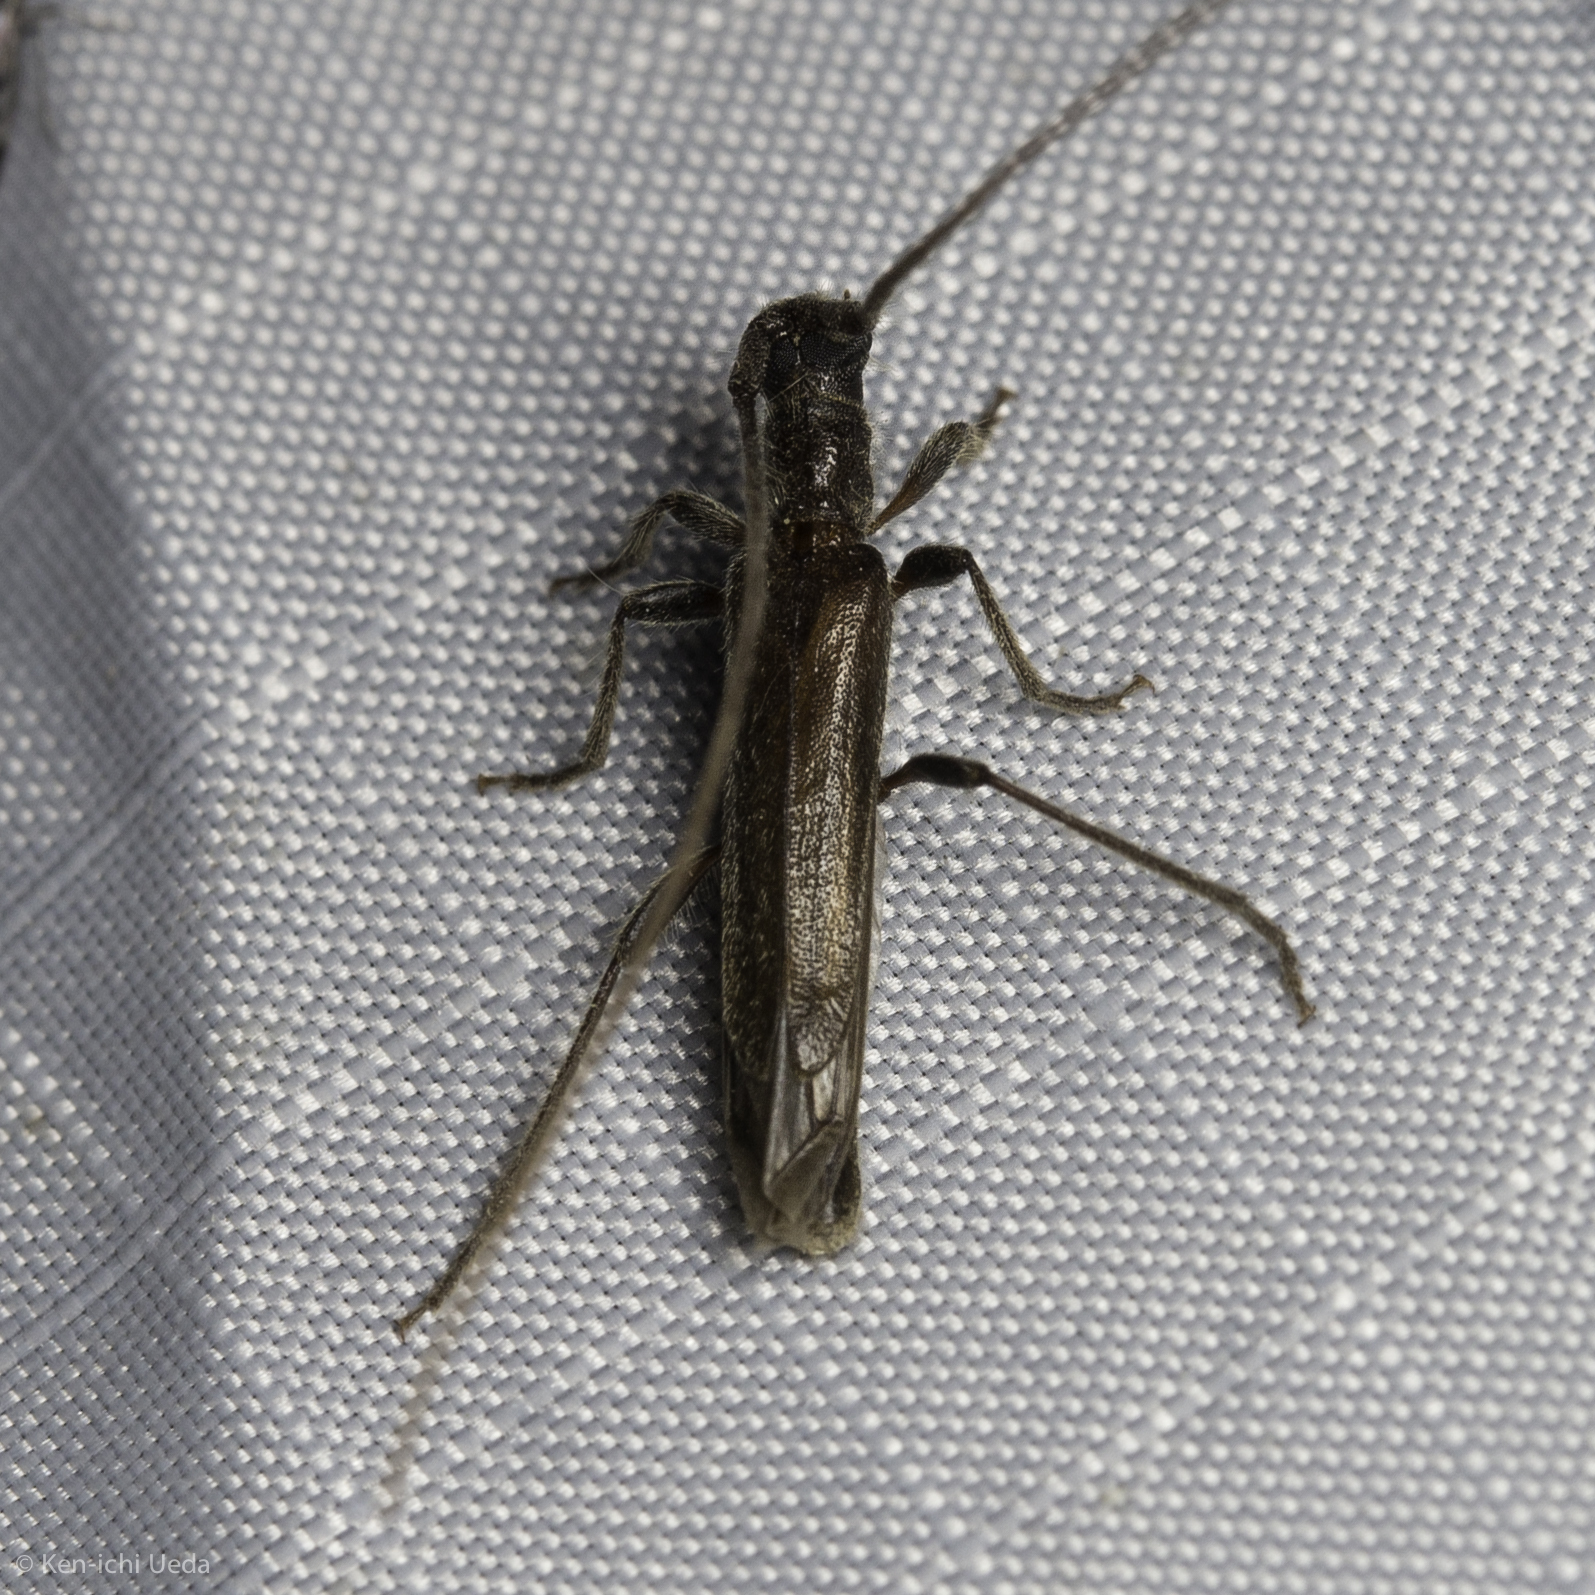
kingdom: Animalia
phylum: Arthropoda
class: Insecta
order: Coleoptera
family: Cerambycidae
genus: Styloxus
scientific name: Styloxus fulleri
